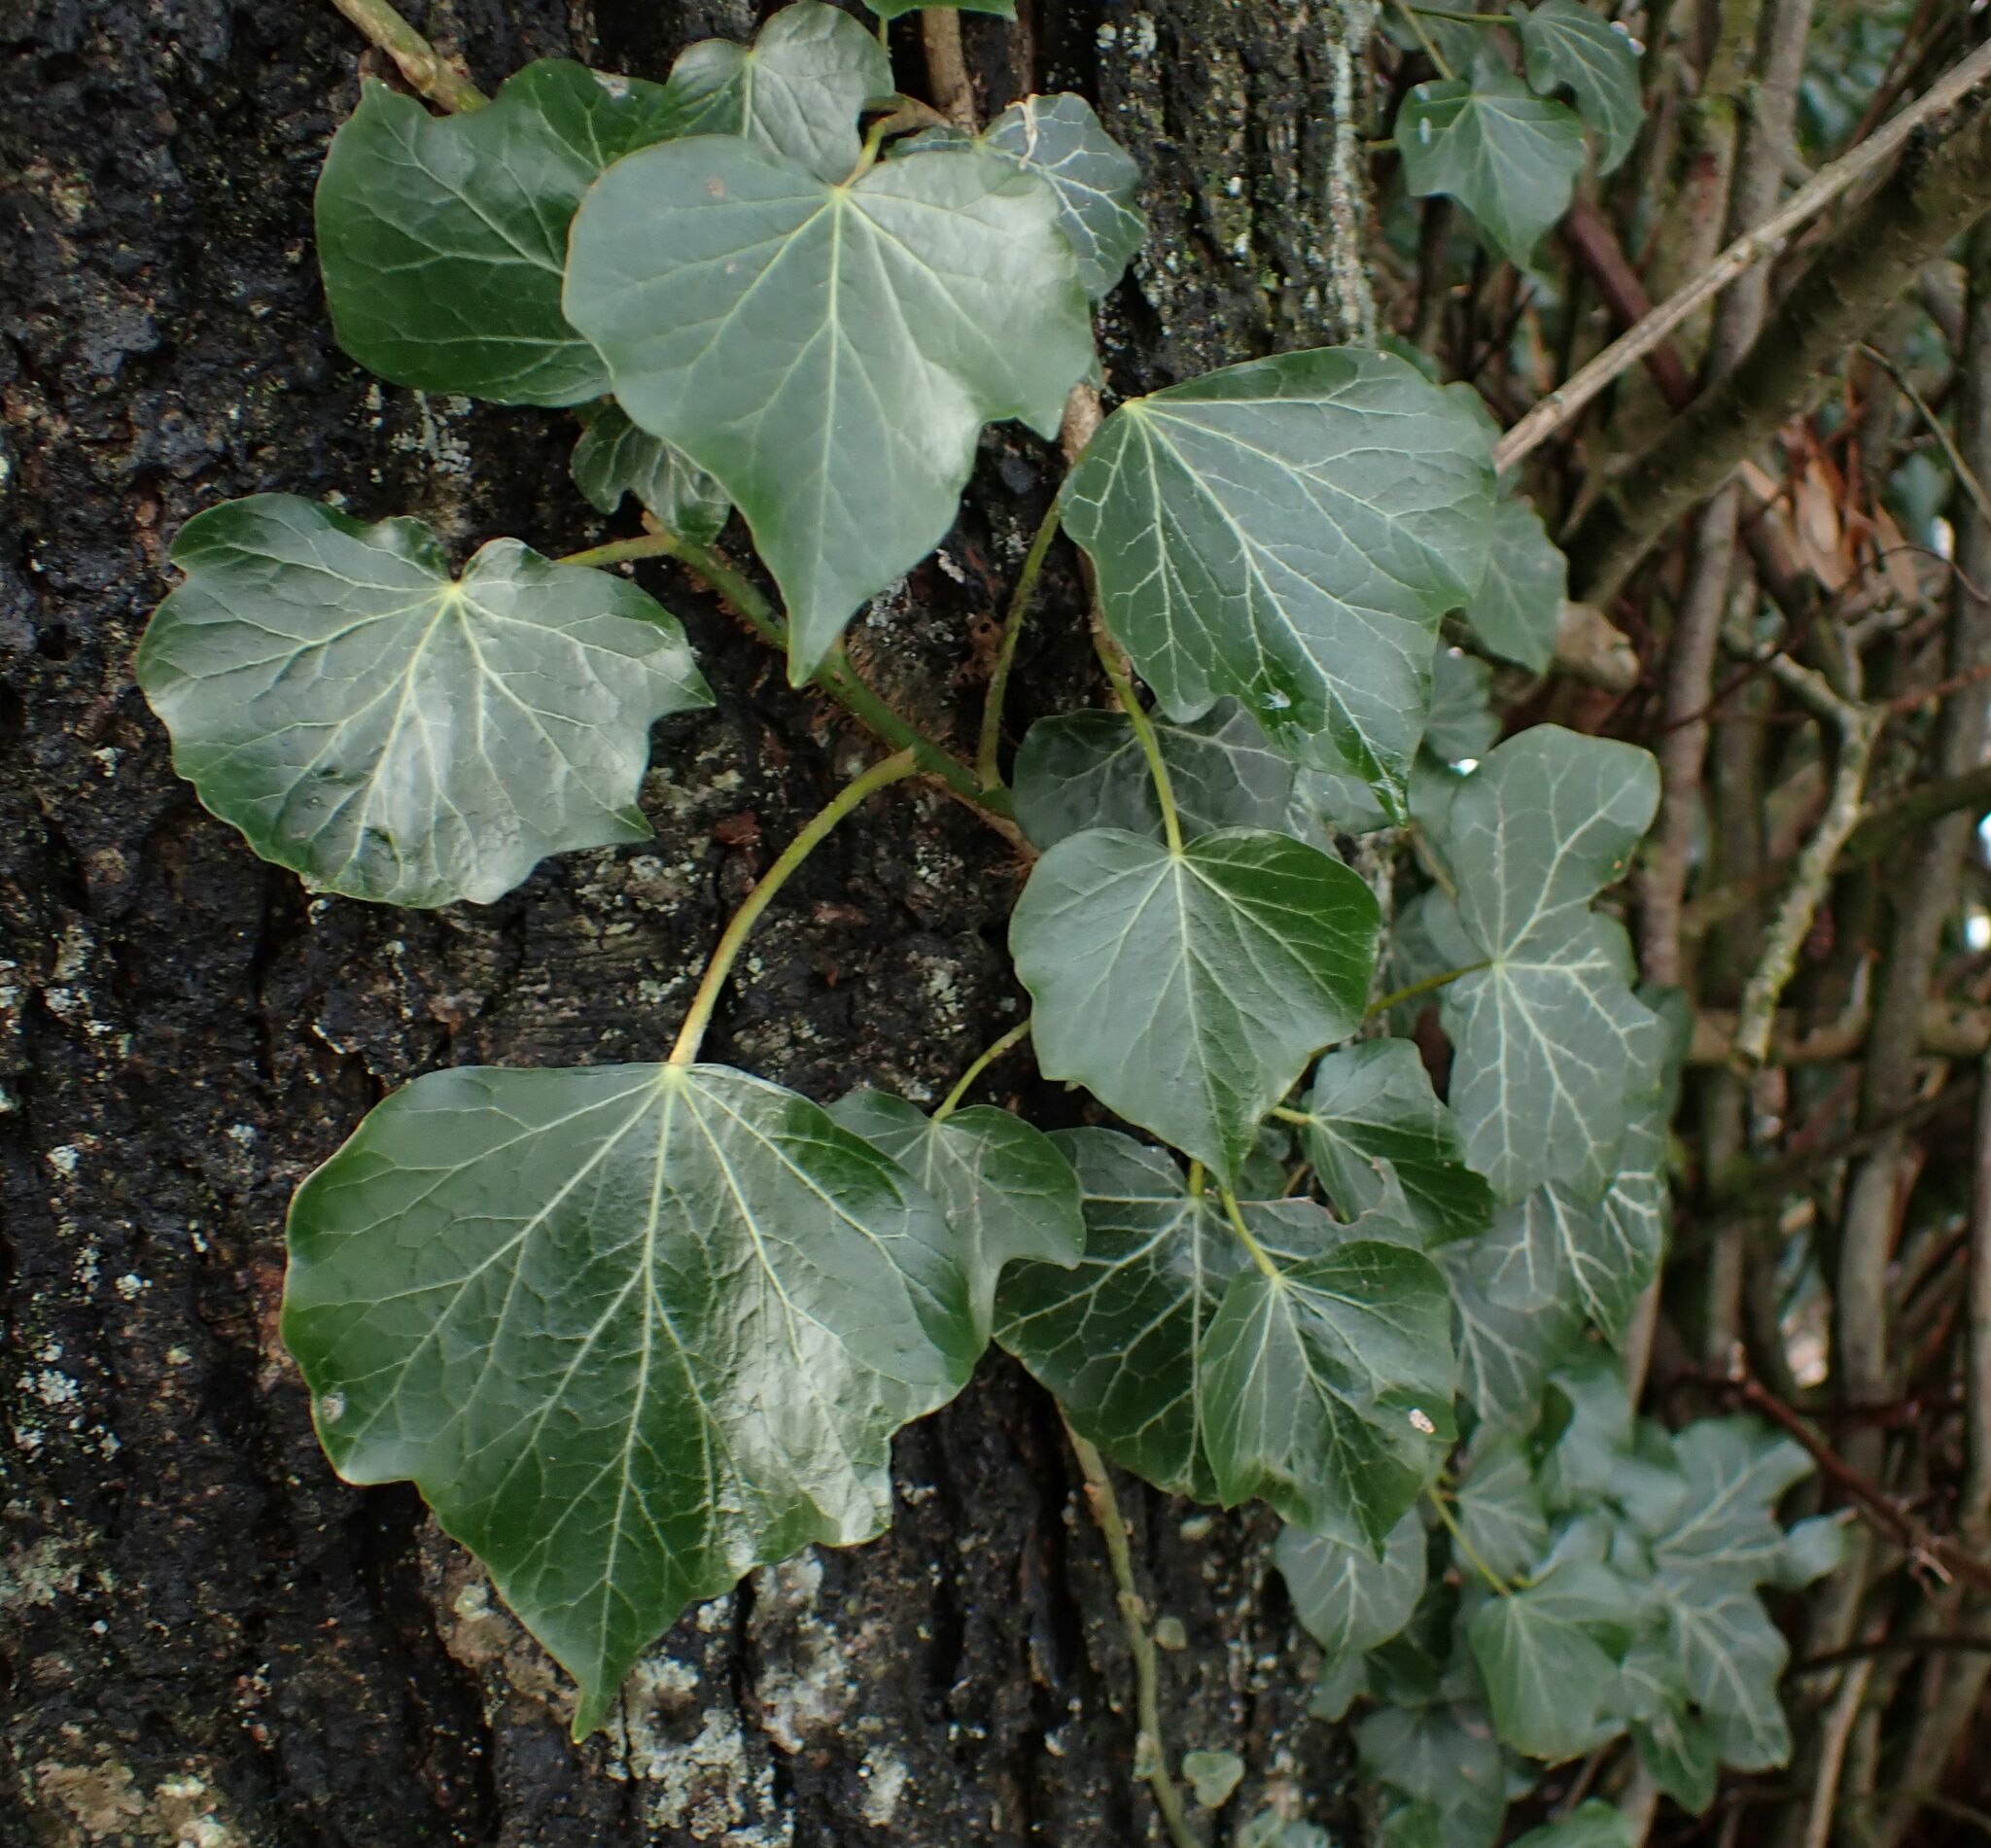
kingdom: Plantae
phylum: Tracheophyta
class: Magnoliopsida
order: Apiales
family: Araliaceae
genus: Hedera
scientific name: Hedera helix
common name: Ivy
